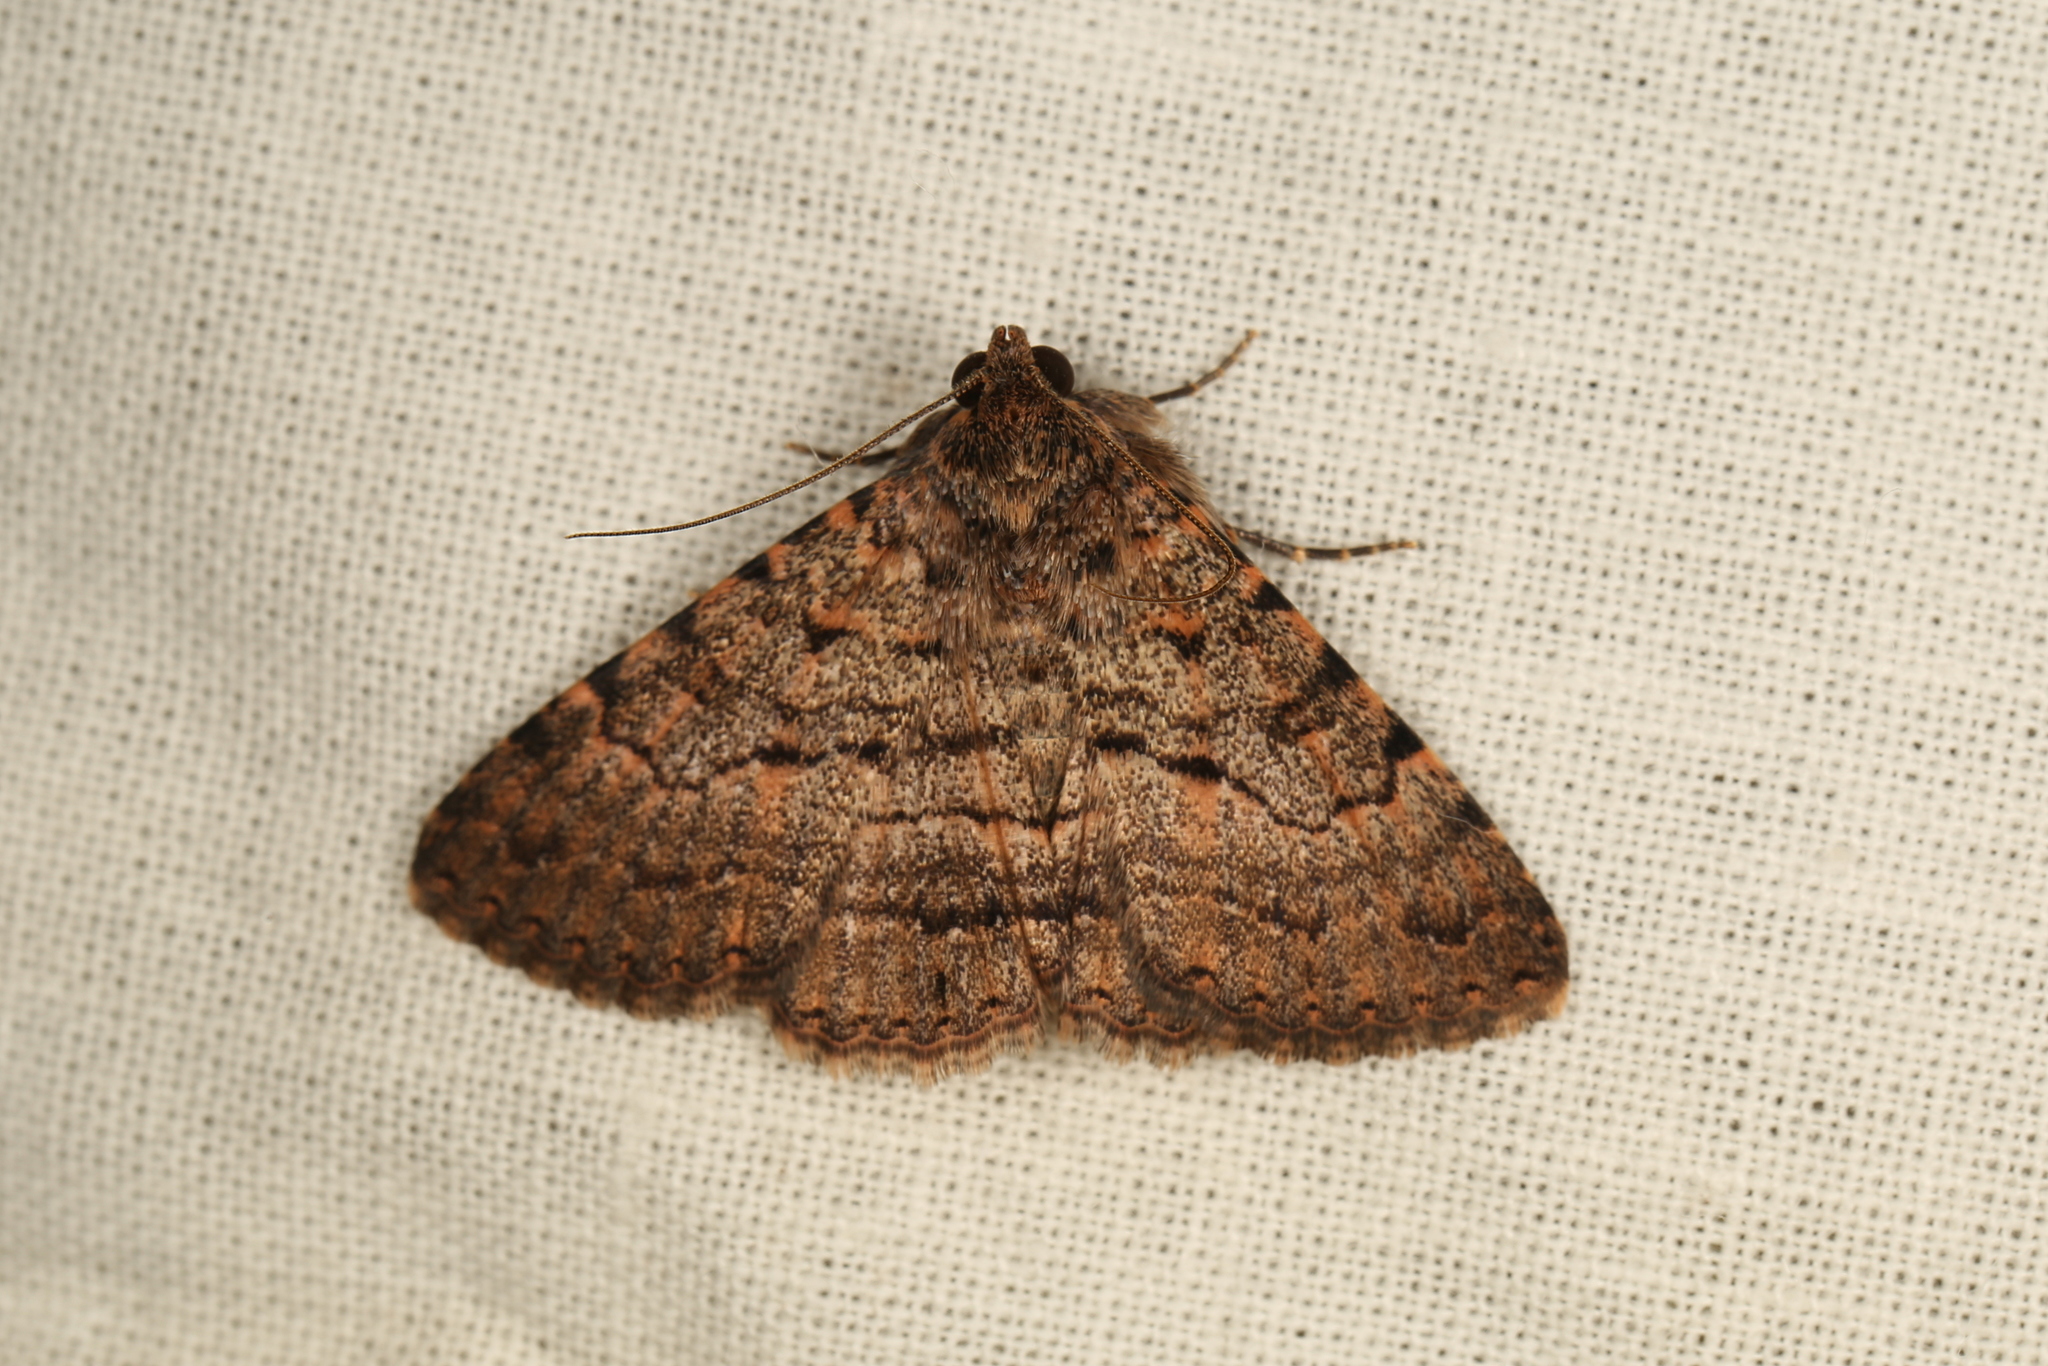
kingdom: Animalia
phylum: Arthropoda
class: Insecta
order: Lepidoptera
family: Erebidae
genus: Diatenes
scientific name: Diatenes igneipicta
